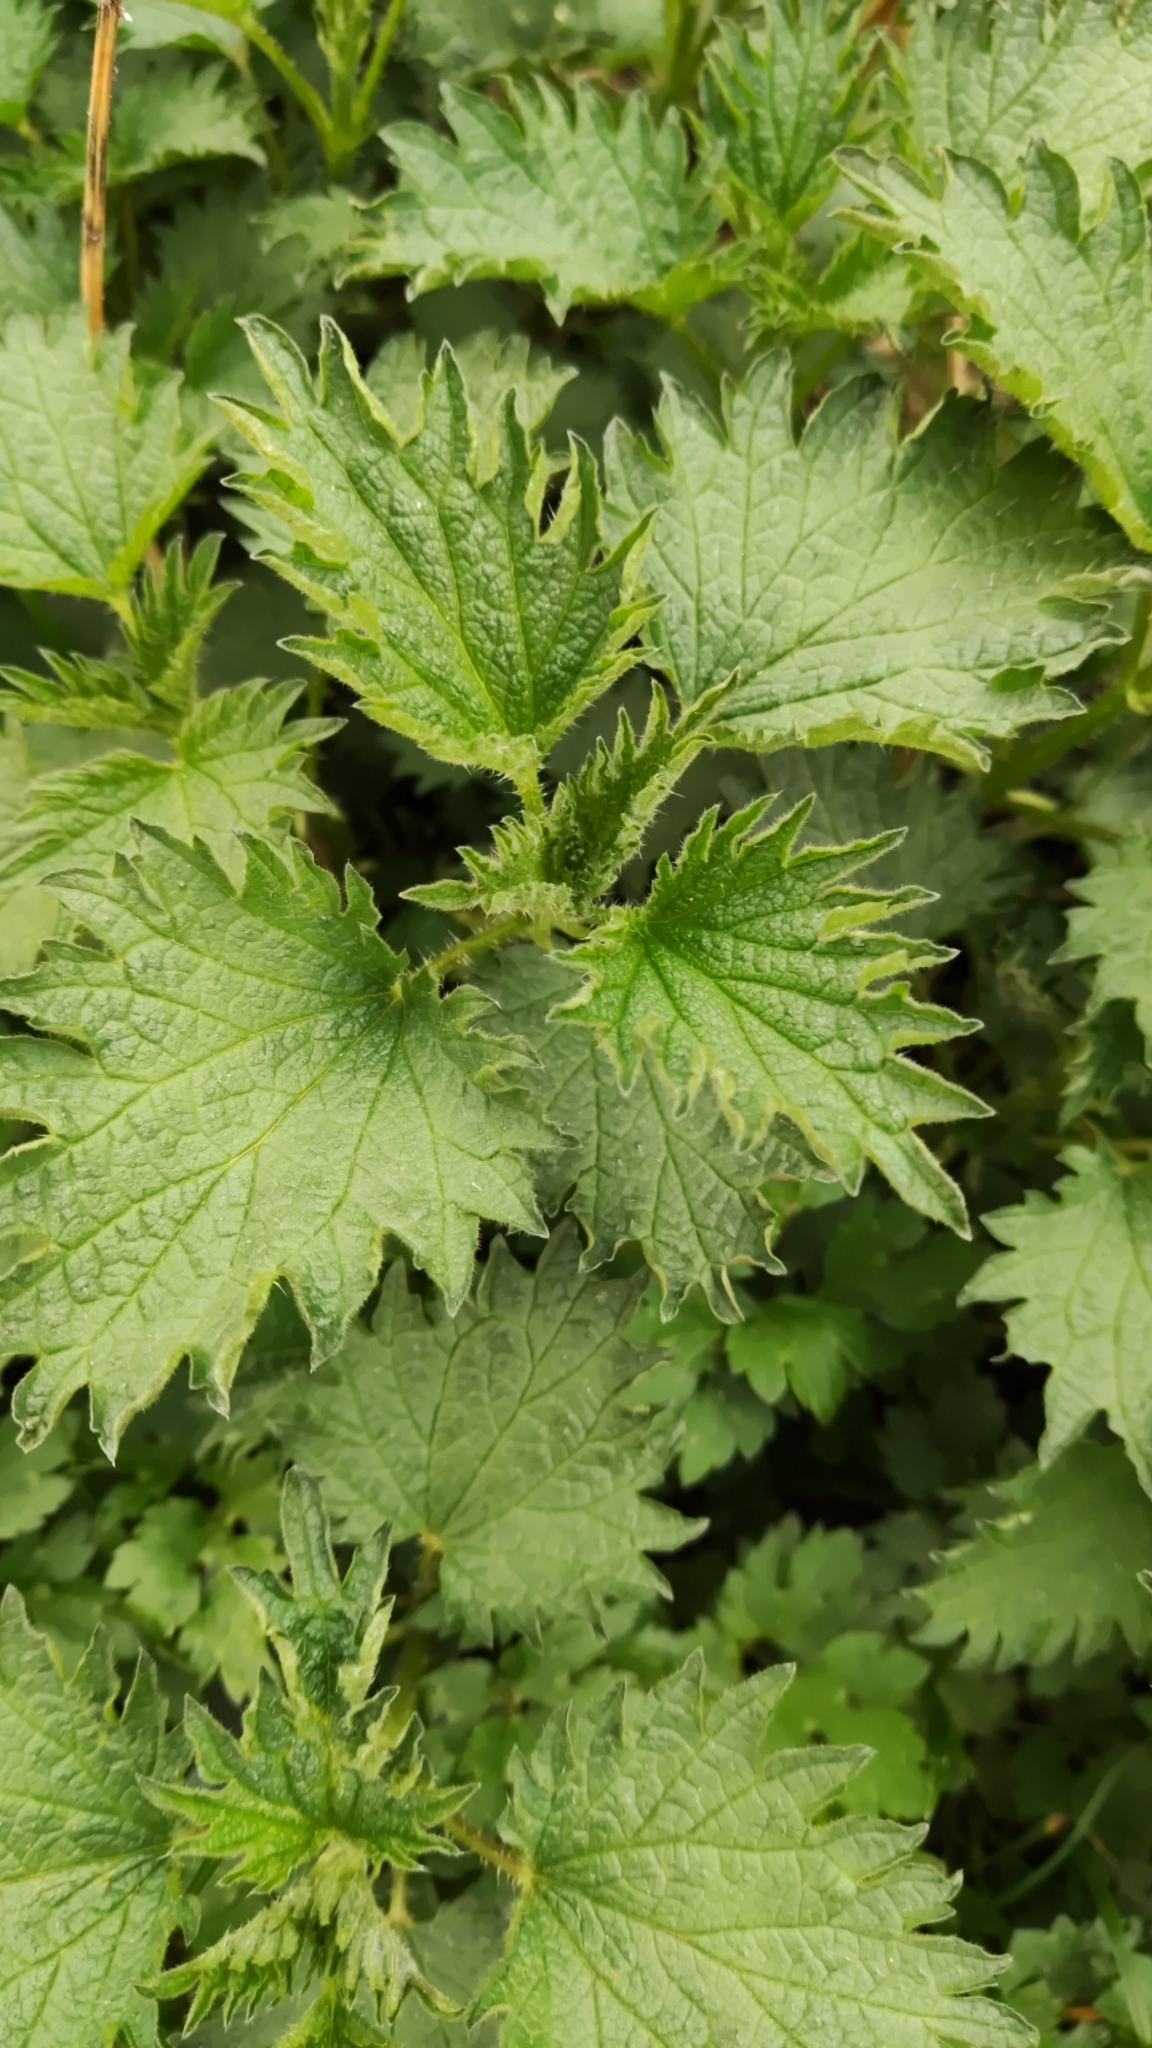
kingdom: Plantae
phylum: Tracheophyta
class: Magnoliopsida
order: Rosales
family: Urticaceae
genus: Urtica
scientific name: Urtica urens
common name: Dwarf nettle
